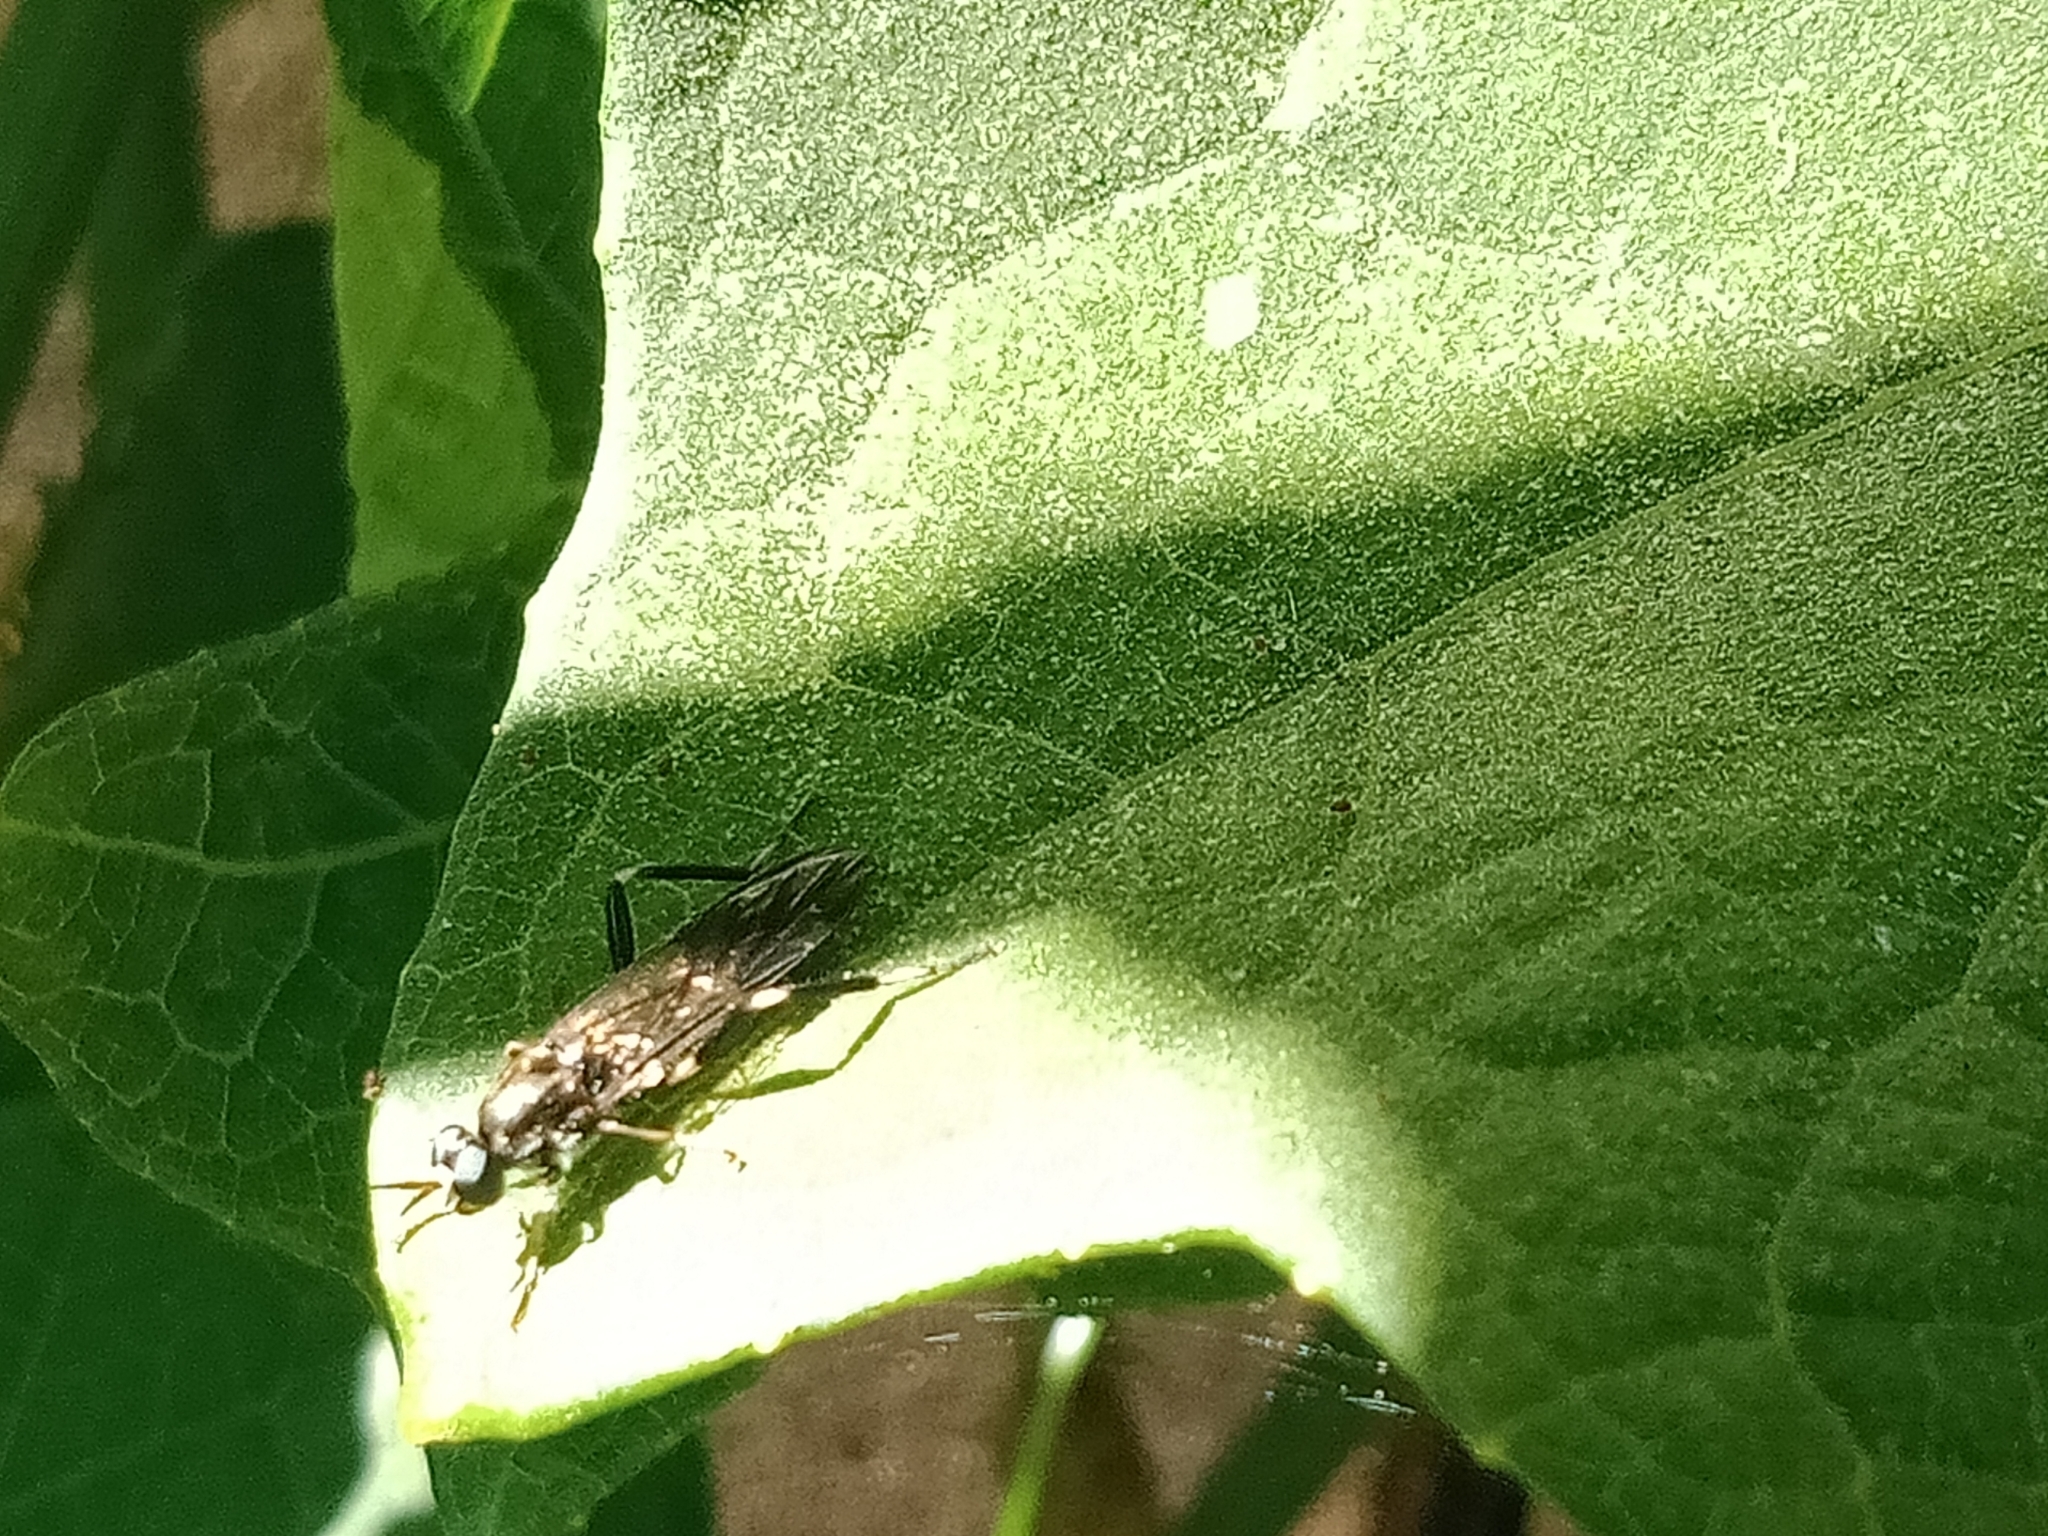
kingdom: Animalia
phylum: Arthropoda
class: Insecta
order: Diptera
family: Stratiomyidae
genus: Exaireta
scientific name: Exaireta spinigera
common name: Blue soldier fly
